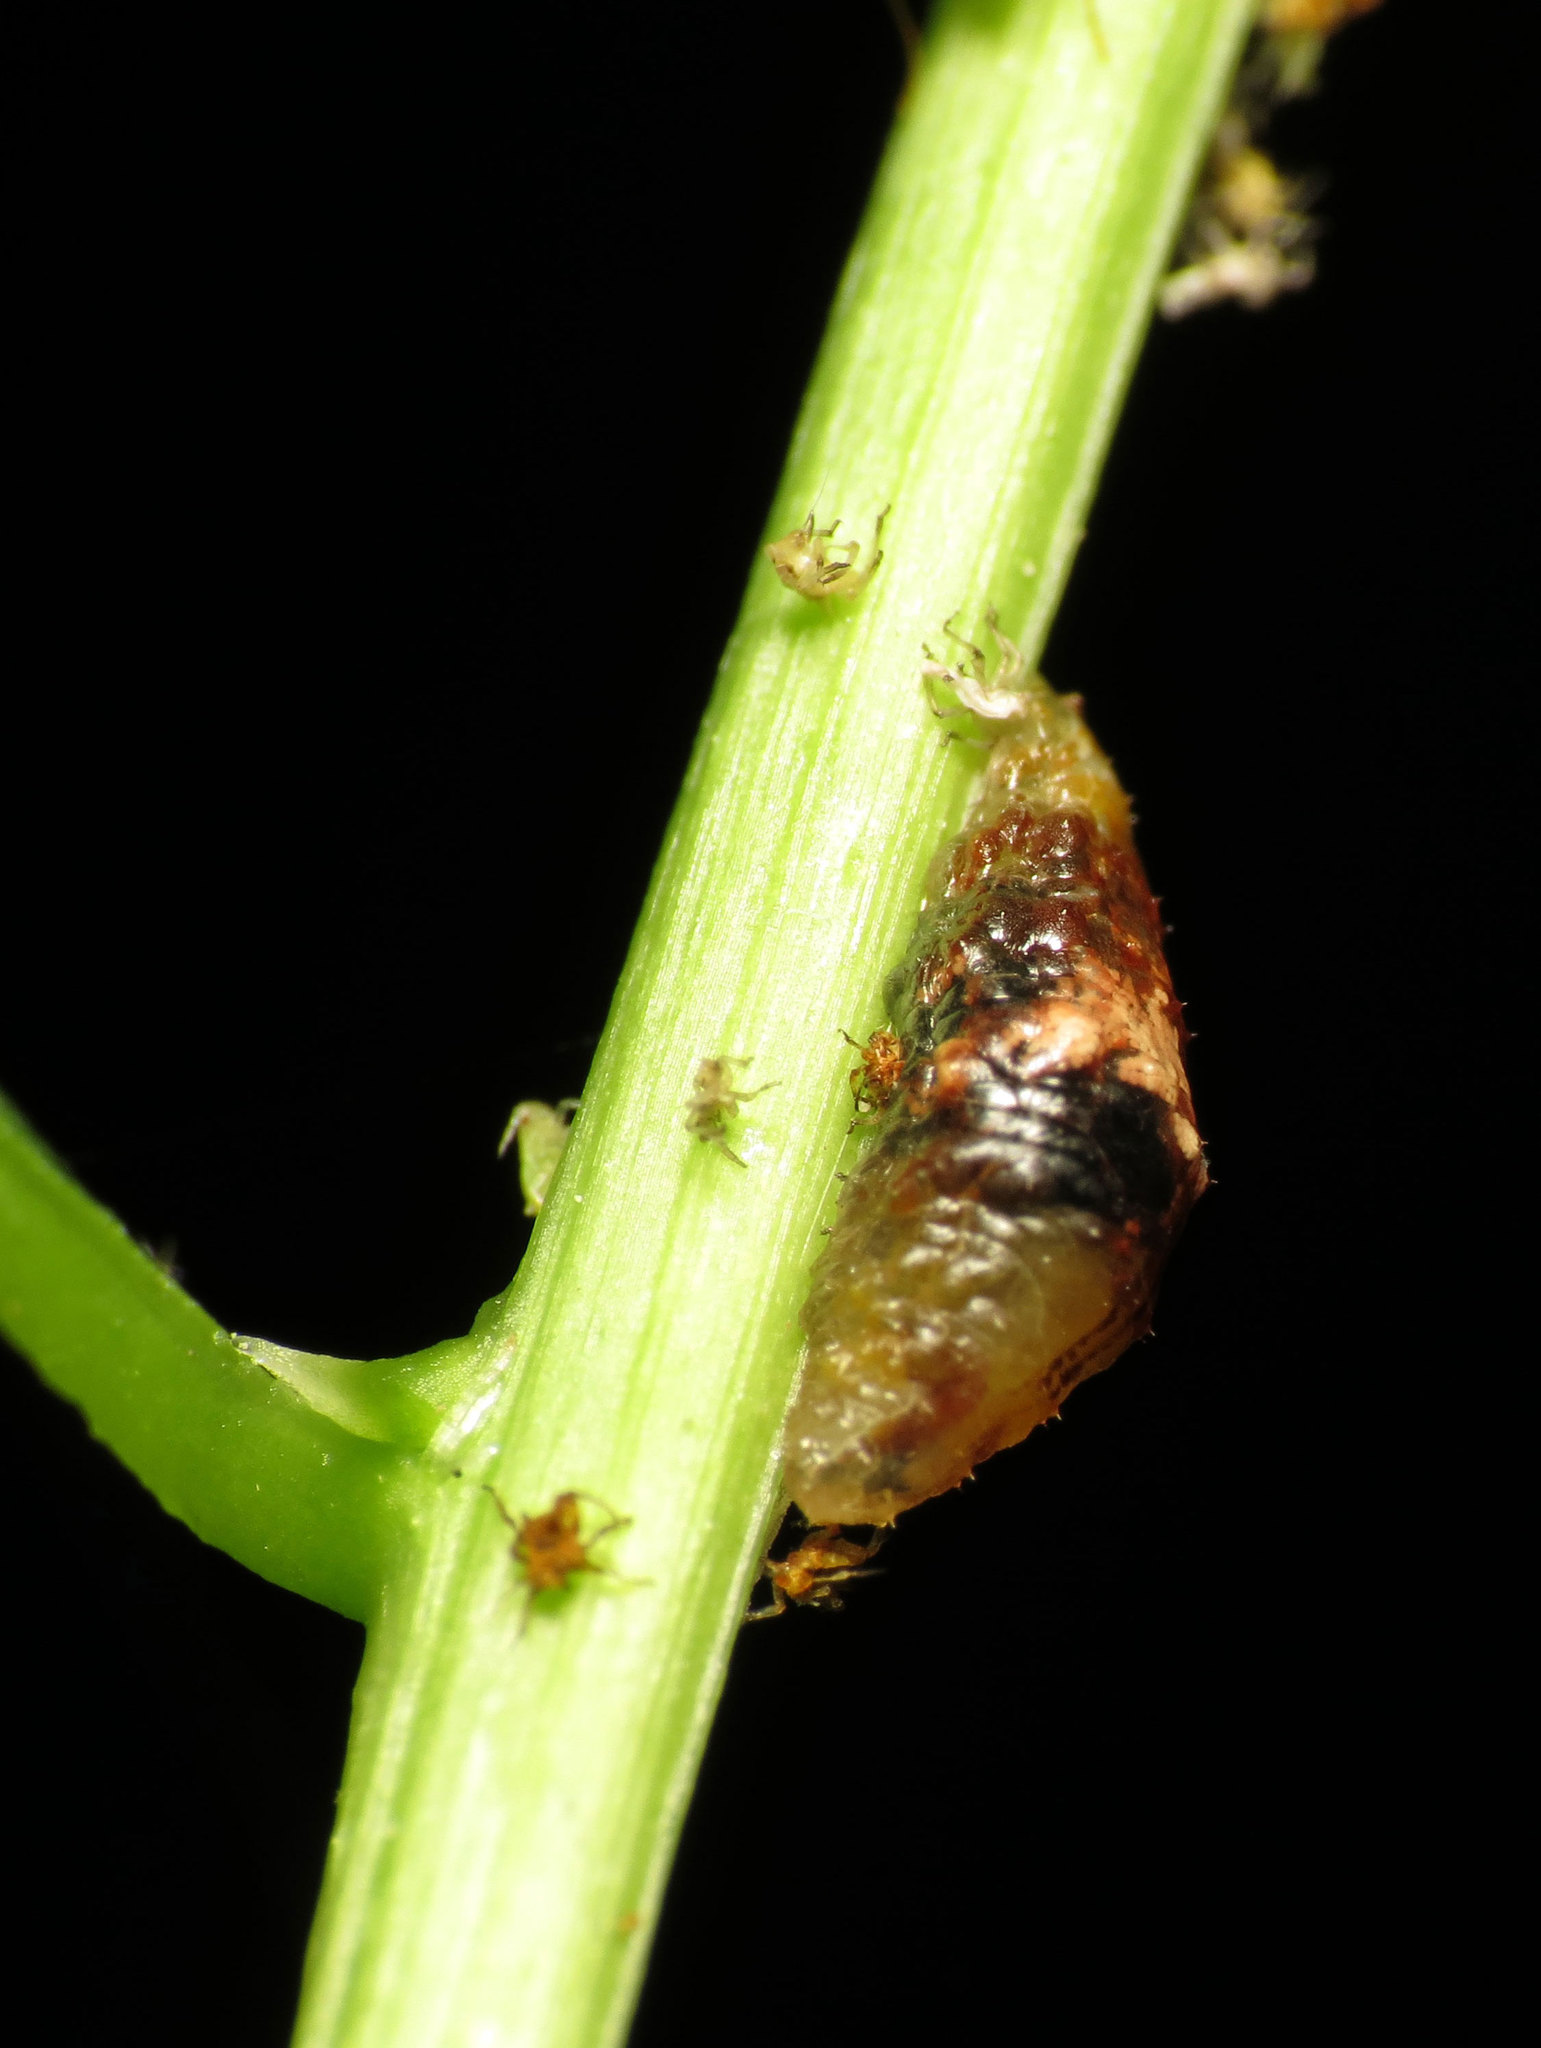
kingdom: Animalia
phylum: Arthropoda
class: Insecta
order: Diptera
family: Syrphidae
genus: Ocyptamus
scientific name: Ocyptamus fuscipennis
